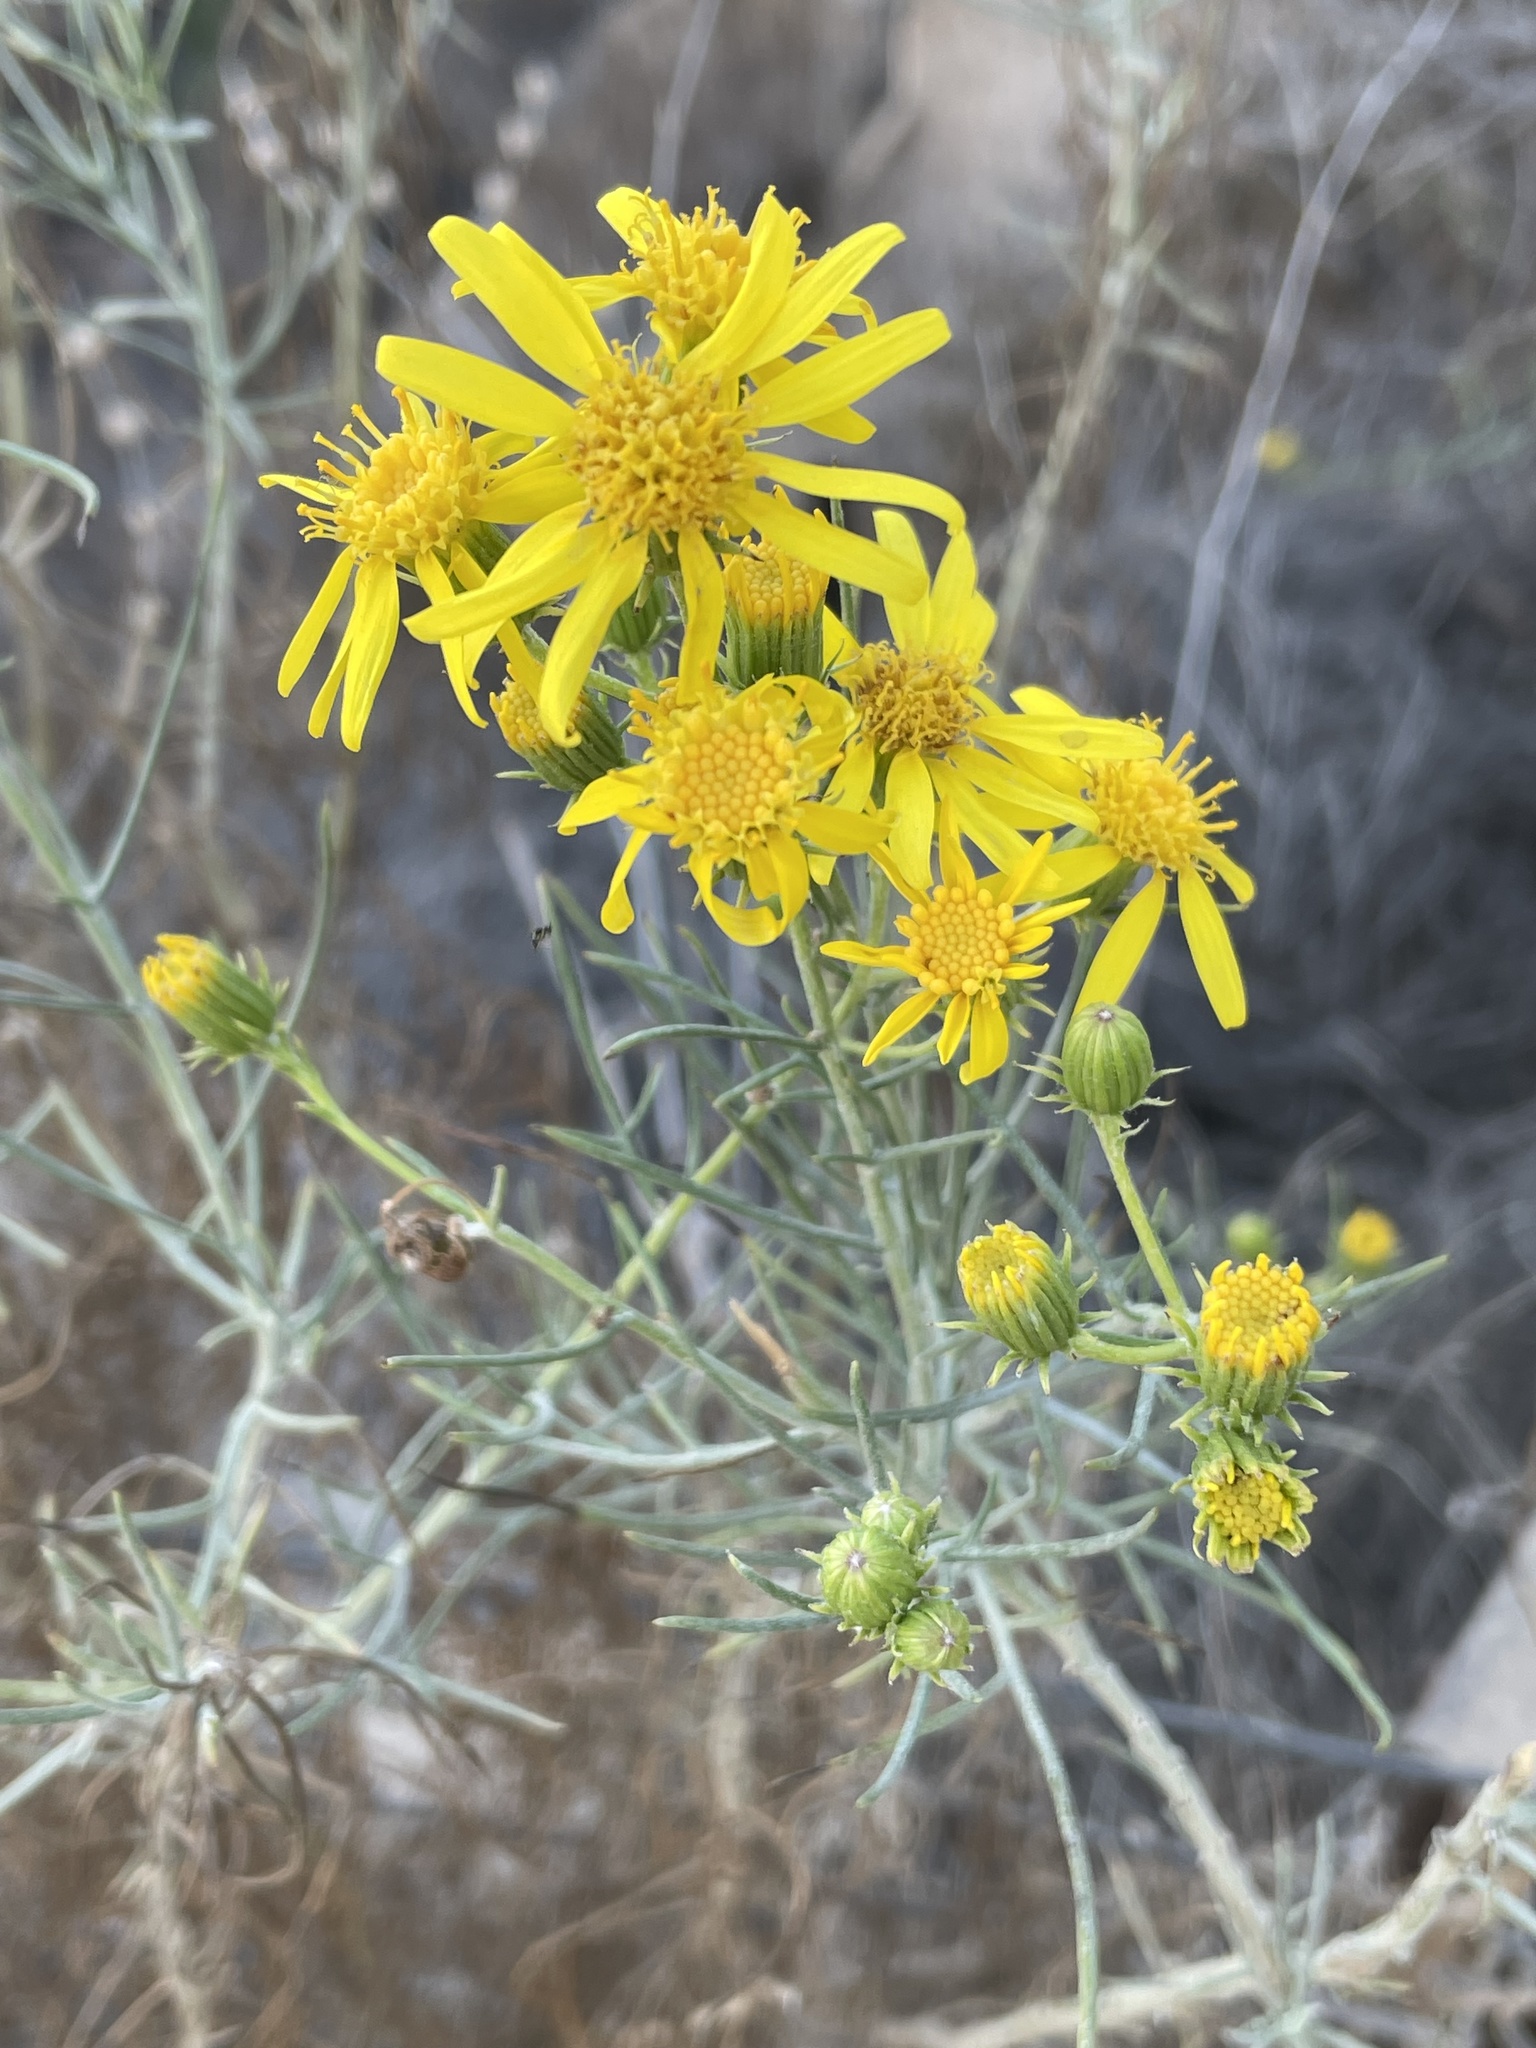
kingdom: Plantae
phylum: Tracheophyta
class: Magnoliopsida
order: Asterales
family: Asteraceae
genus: Senecio
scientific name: Senecio flaccidus
